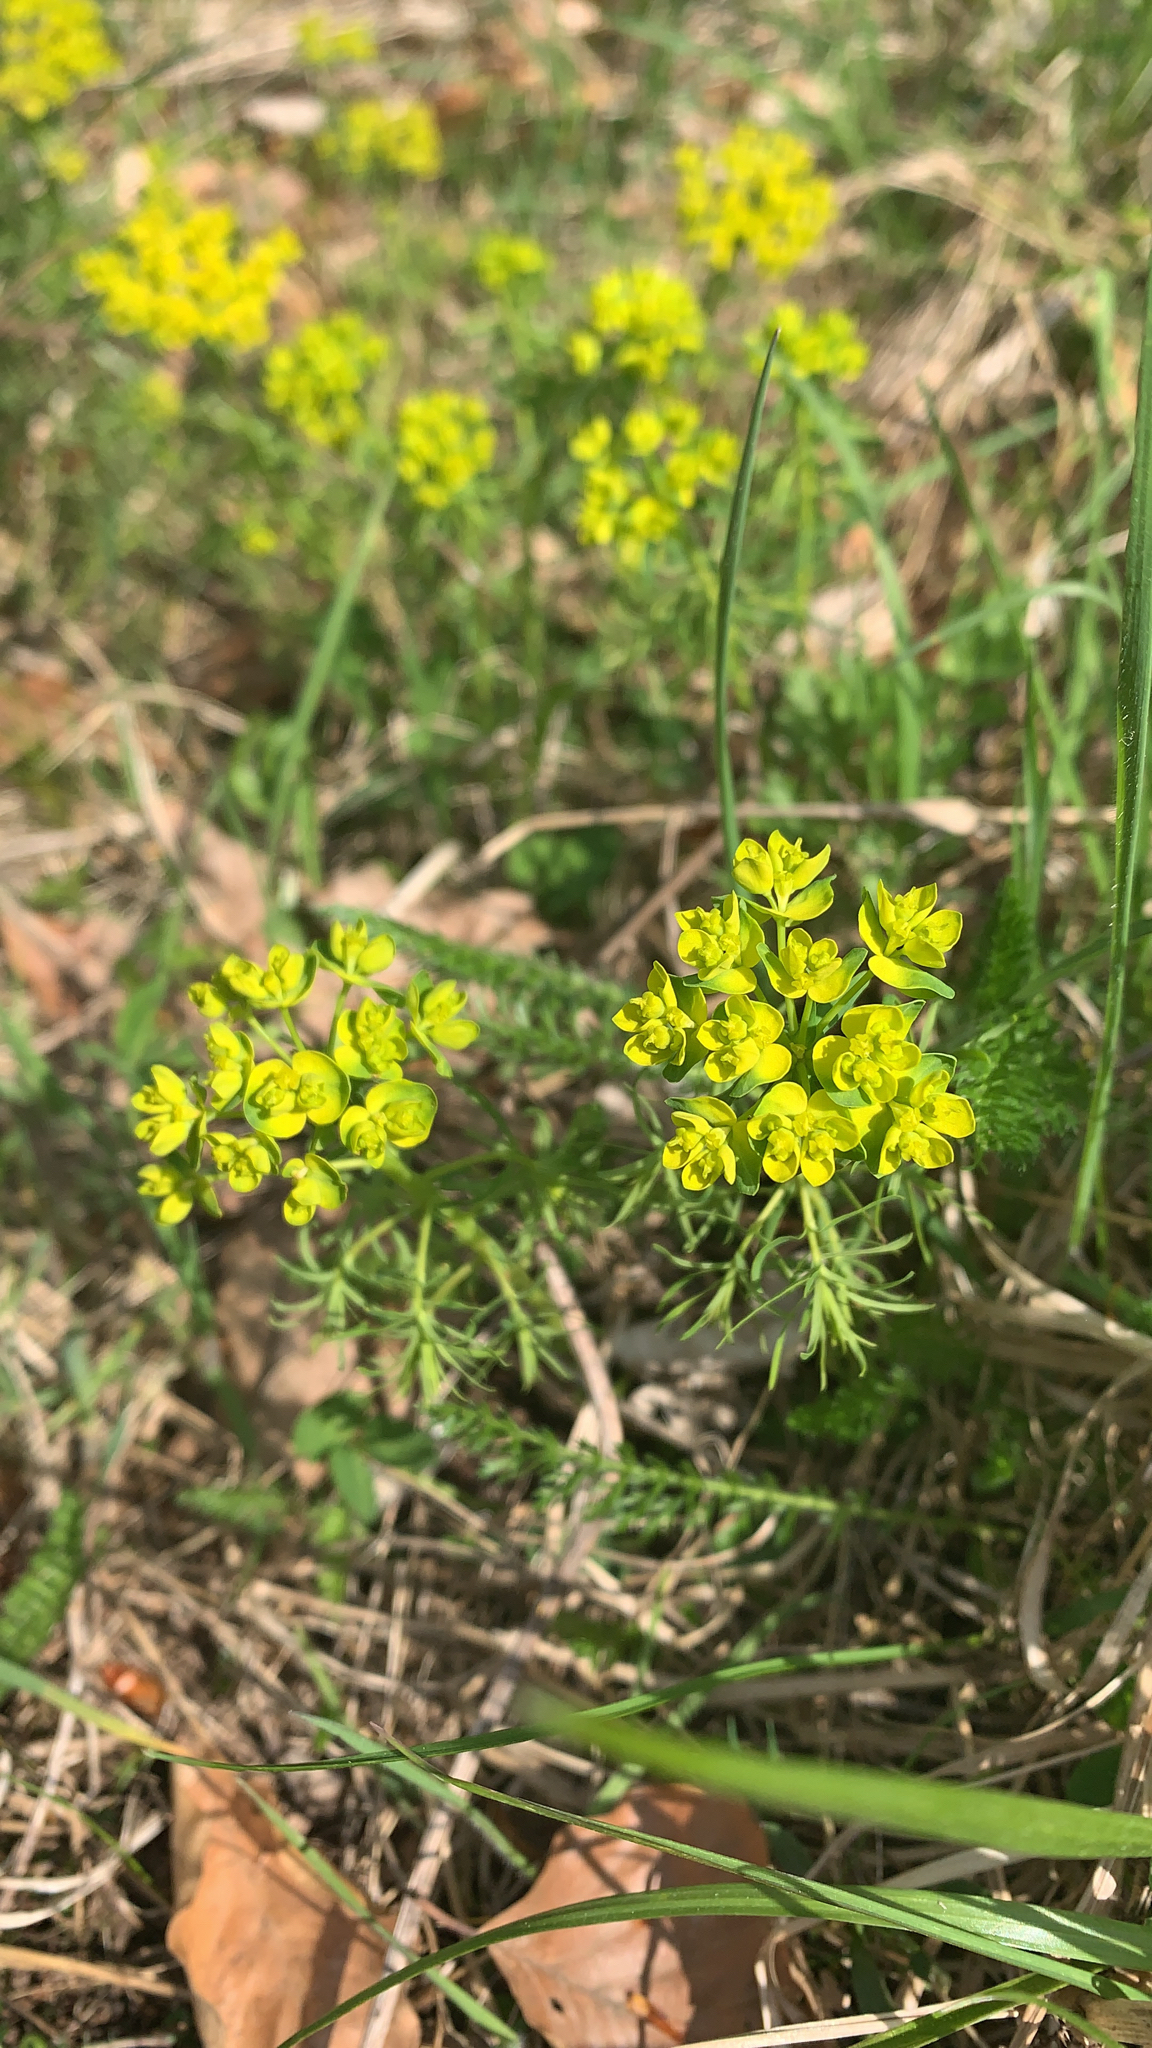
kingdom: Plantae
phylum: Tracheophyta
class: Magnoliopsida
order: Malpighiales
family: Euphorbiaceae
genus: Euphorbia
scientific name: Euphorbia cyparissias
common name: Cypress spurge
